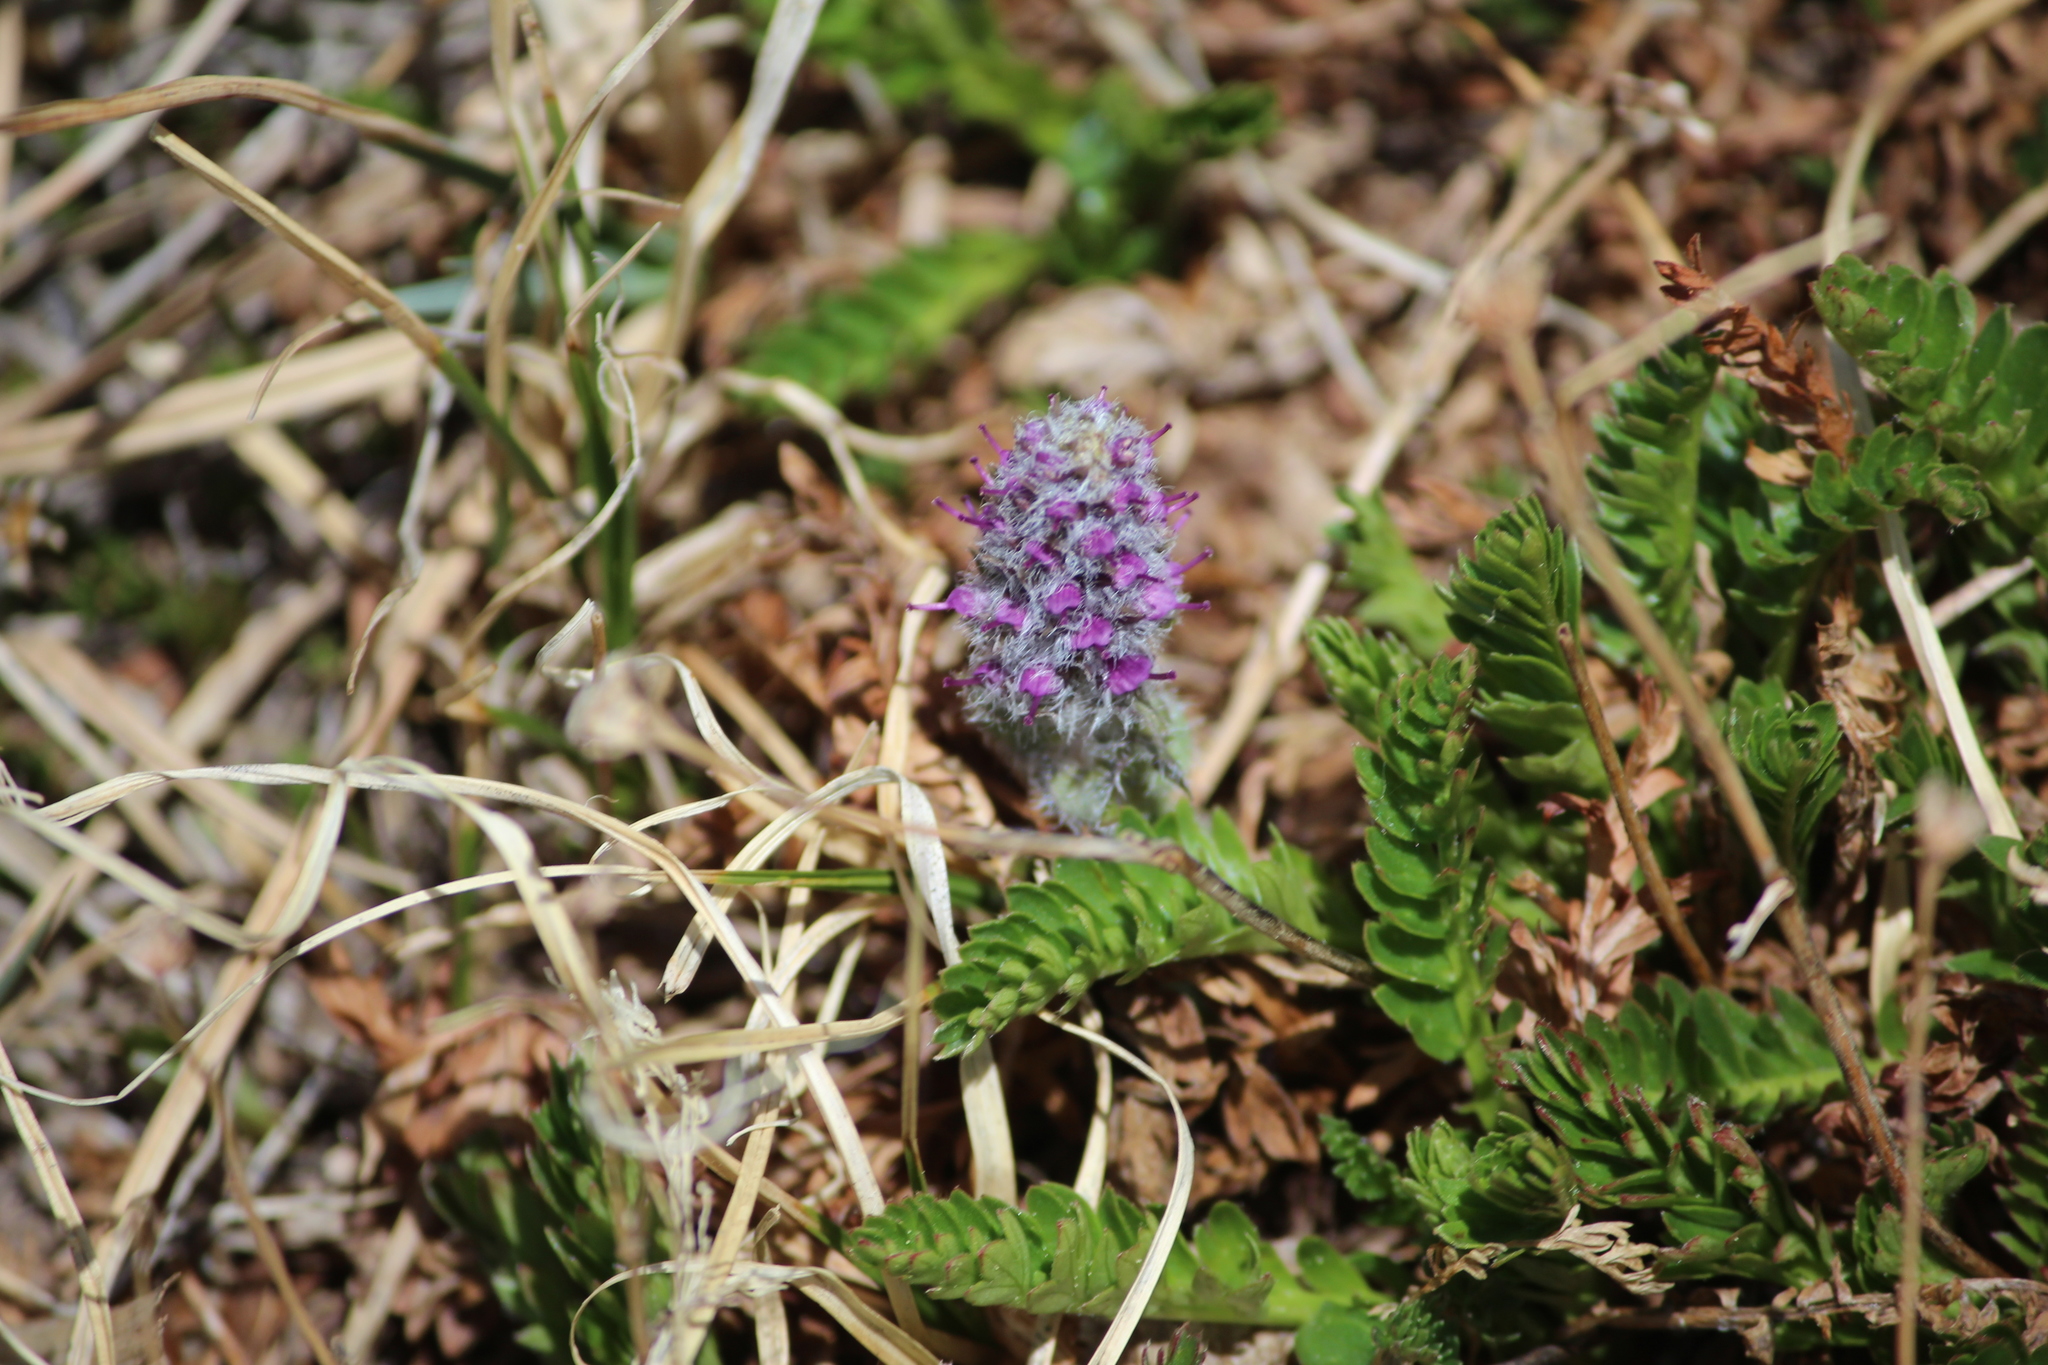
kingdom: Plantae
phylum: Tracheophyta
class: Magnoliopsida
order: Lamiales
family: Plantaginaceae
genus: Synthyris
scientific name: Synthyris alpina
